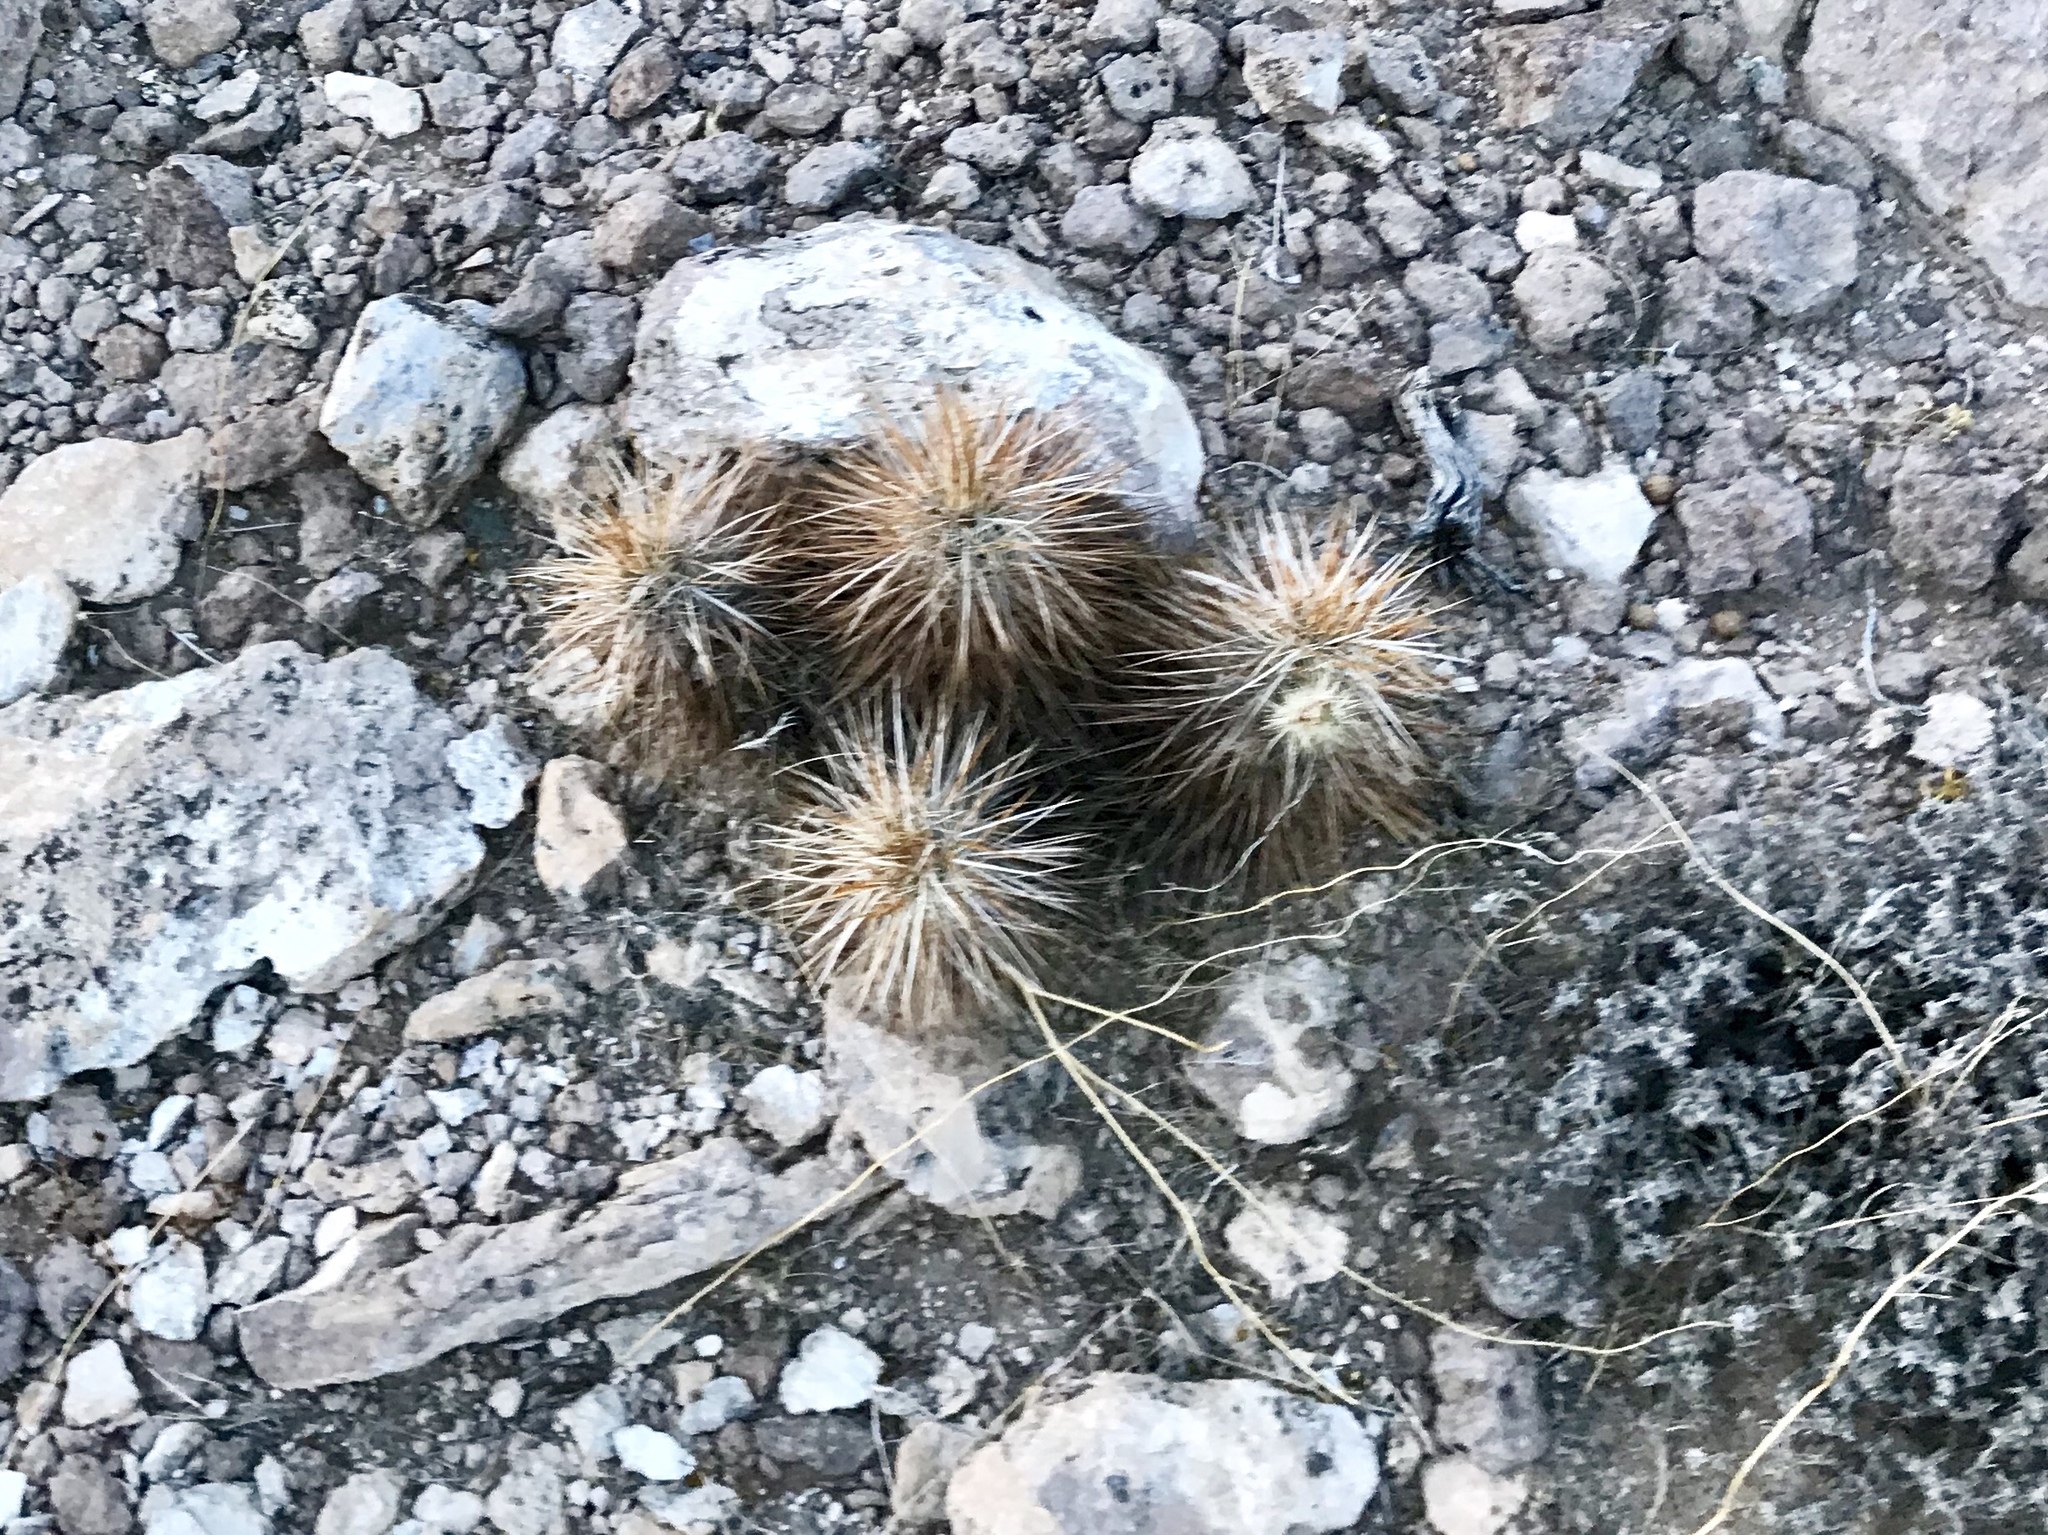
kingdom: Plantae
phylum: Tracheophyta
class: Magnoliopsida
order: Caryophyllales
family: Cactaceae
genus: Echinocereus
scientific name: Echinocereus engelmannii
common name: Engelmann's hedgehog cactus
